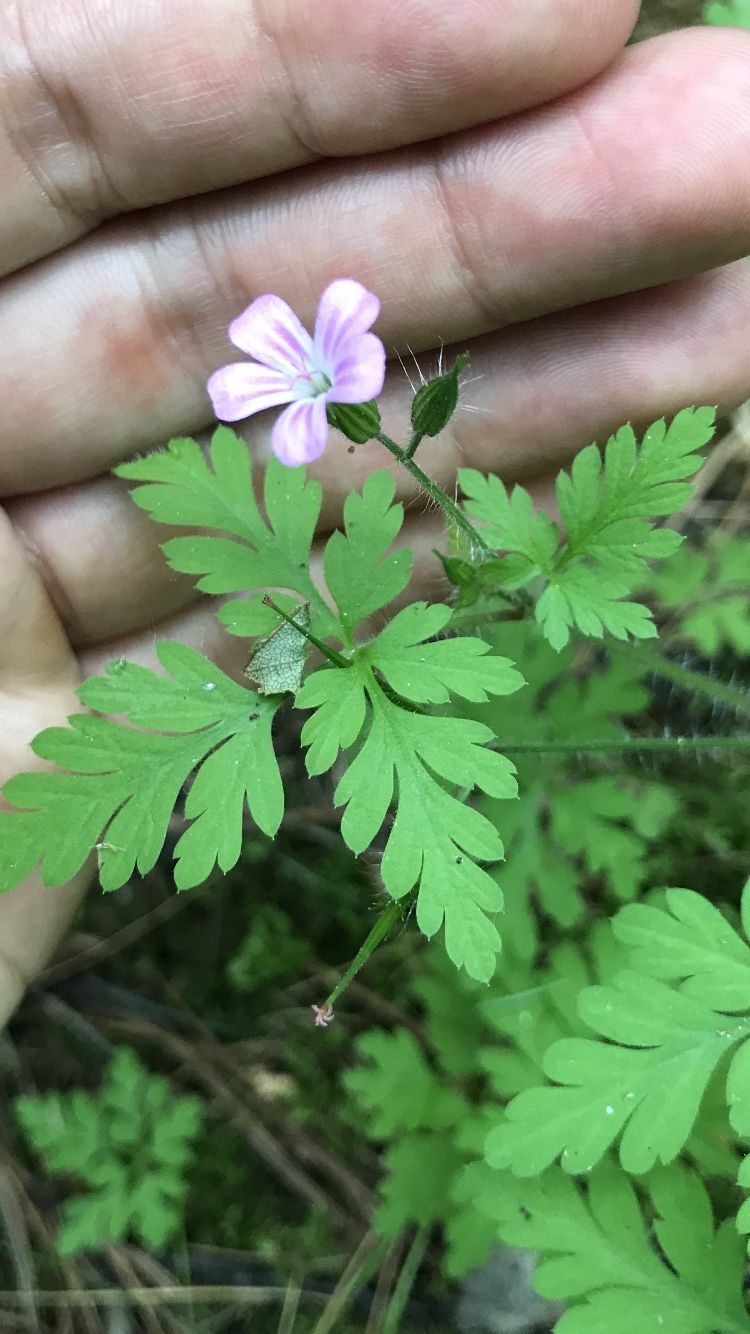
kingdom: Plantae
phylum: Tracheophyta
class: Magnoliopsida
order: Geraniales
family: Geraniaceae
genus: Geranium
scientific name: Geranium robertianum
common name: Herb-robert
